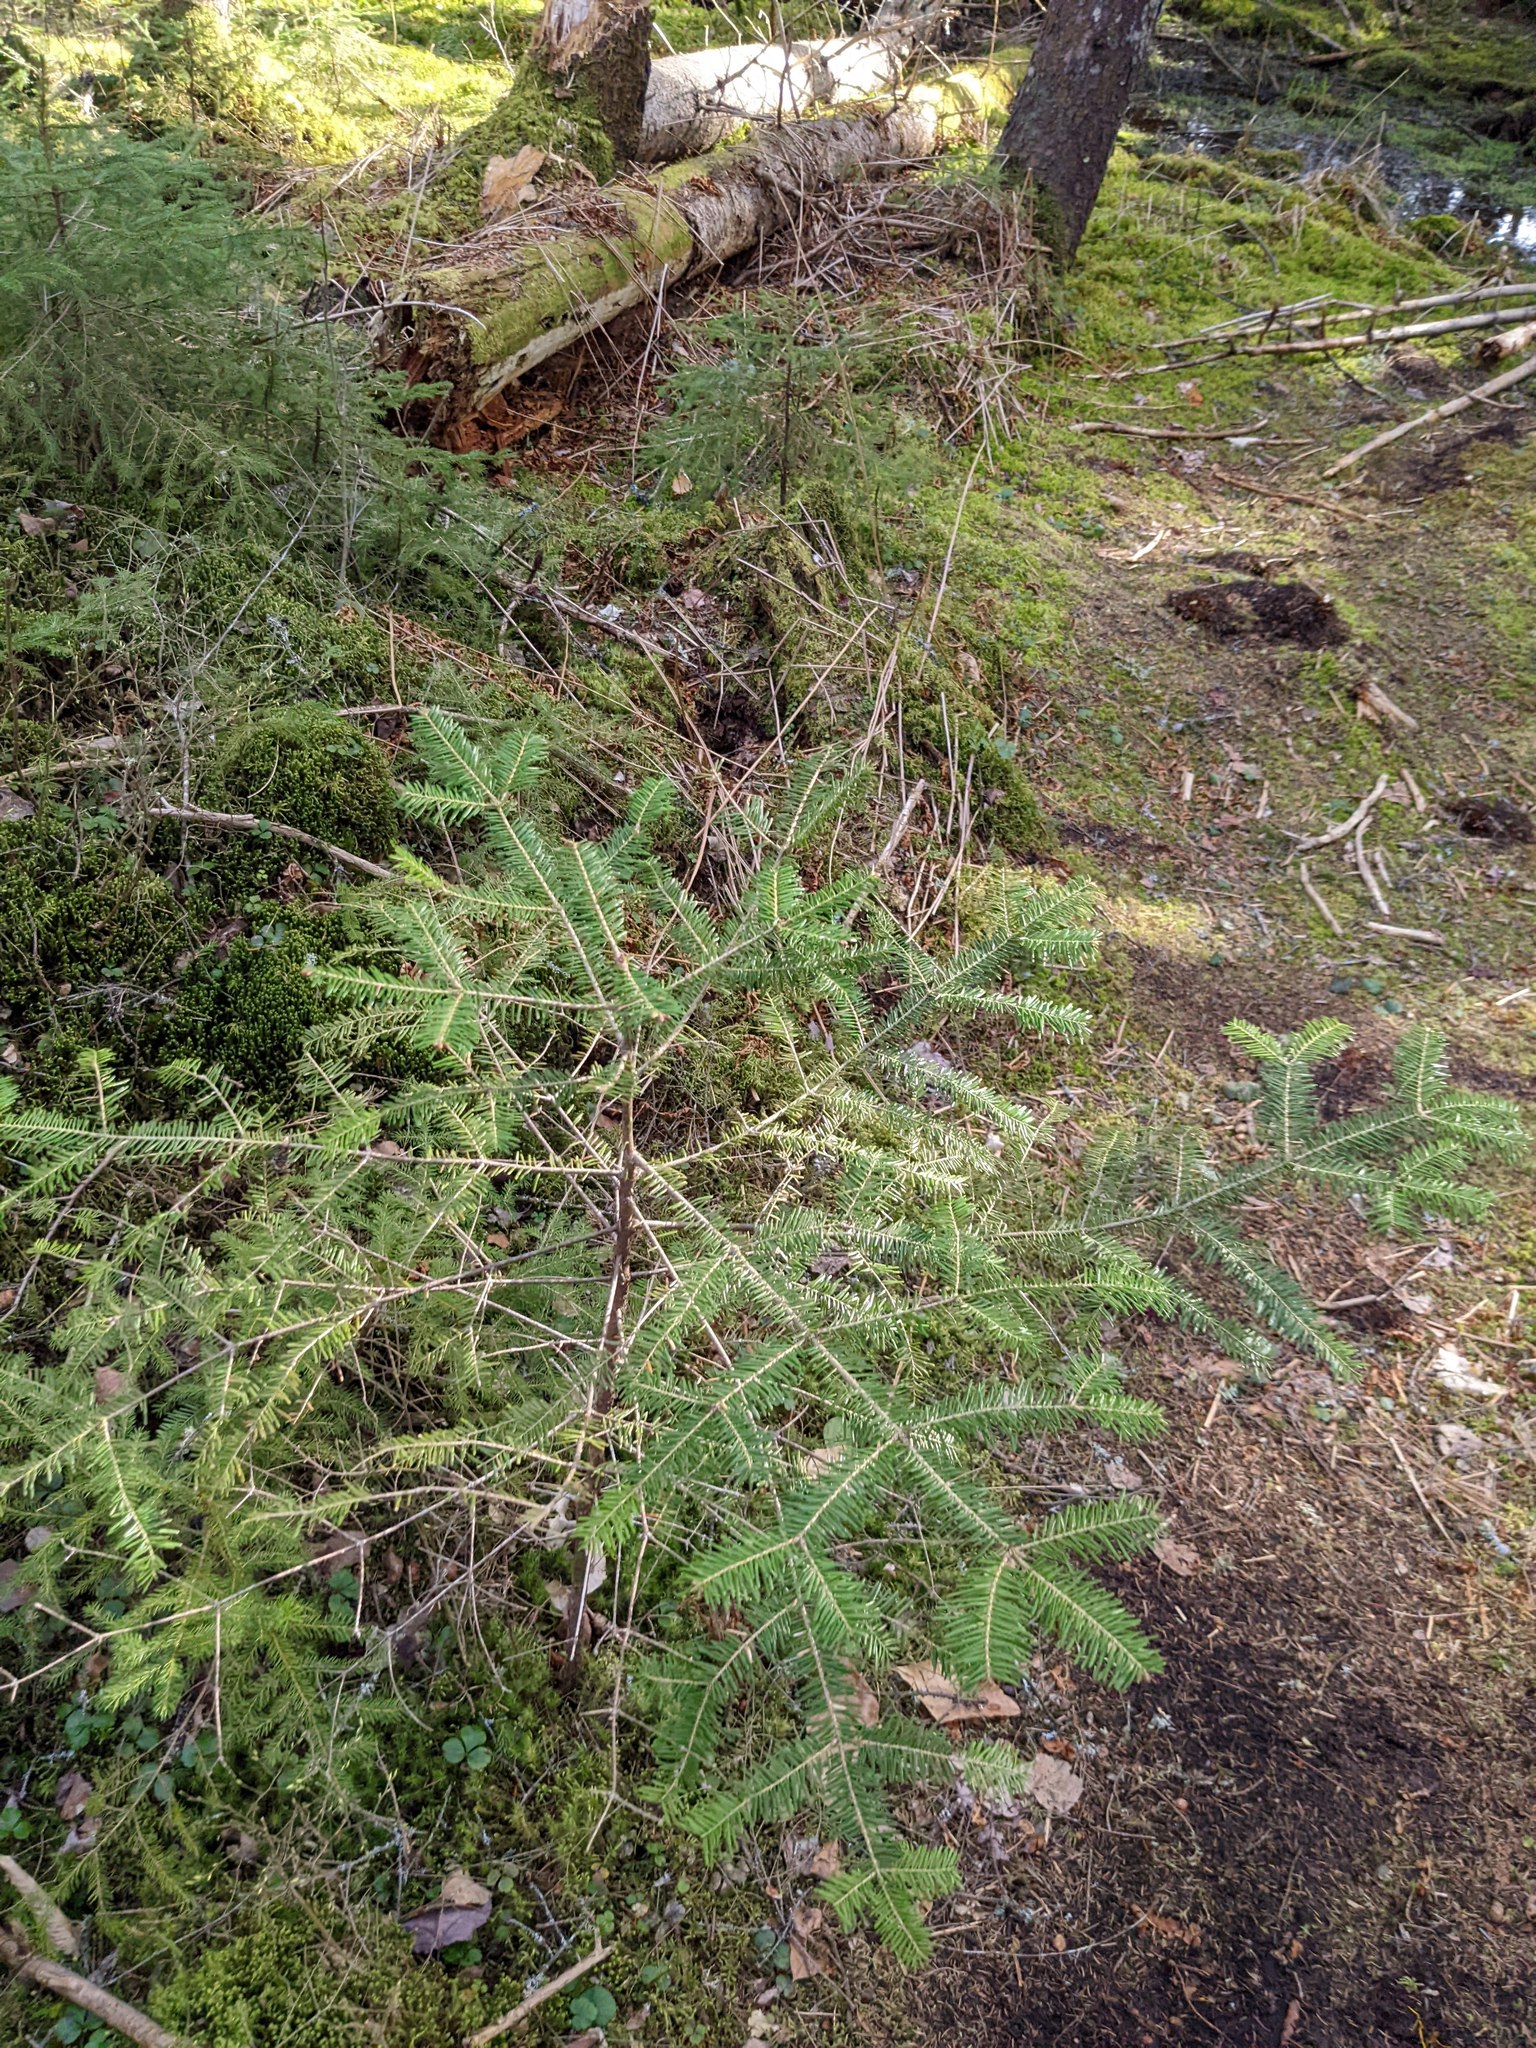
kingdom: Plantae
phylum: Tracheophyta
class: Pinopsida
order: Pinales
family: Pinaceae
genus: Abies
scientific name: Abies balsamea
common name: Balsam fir
